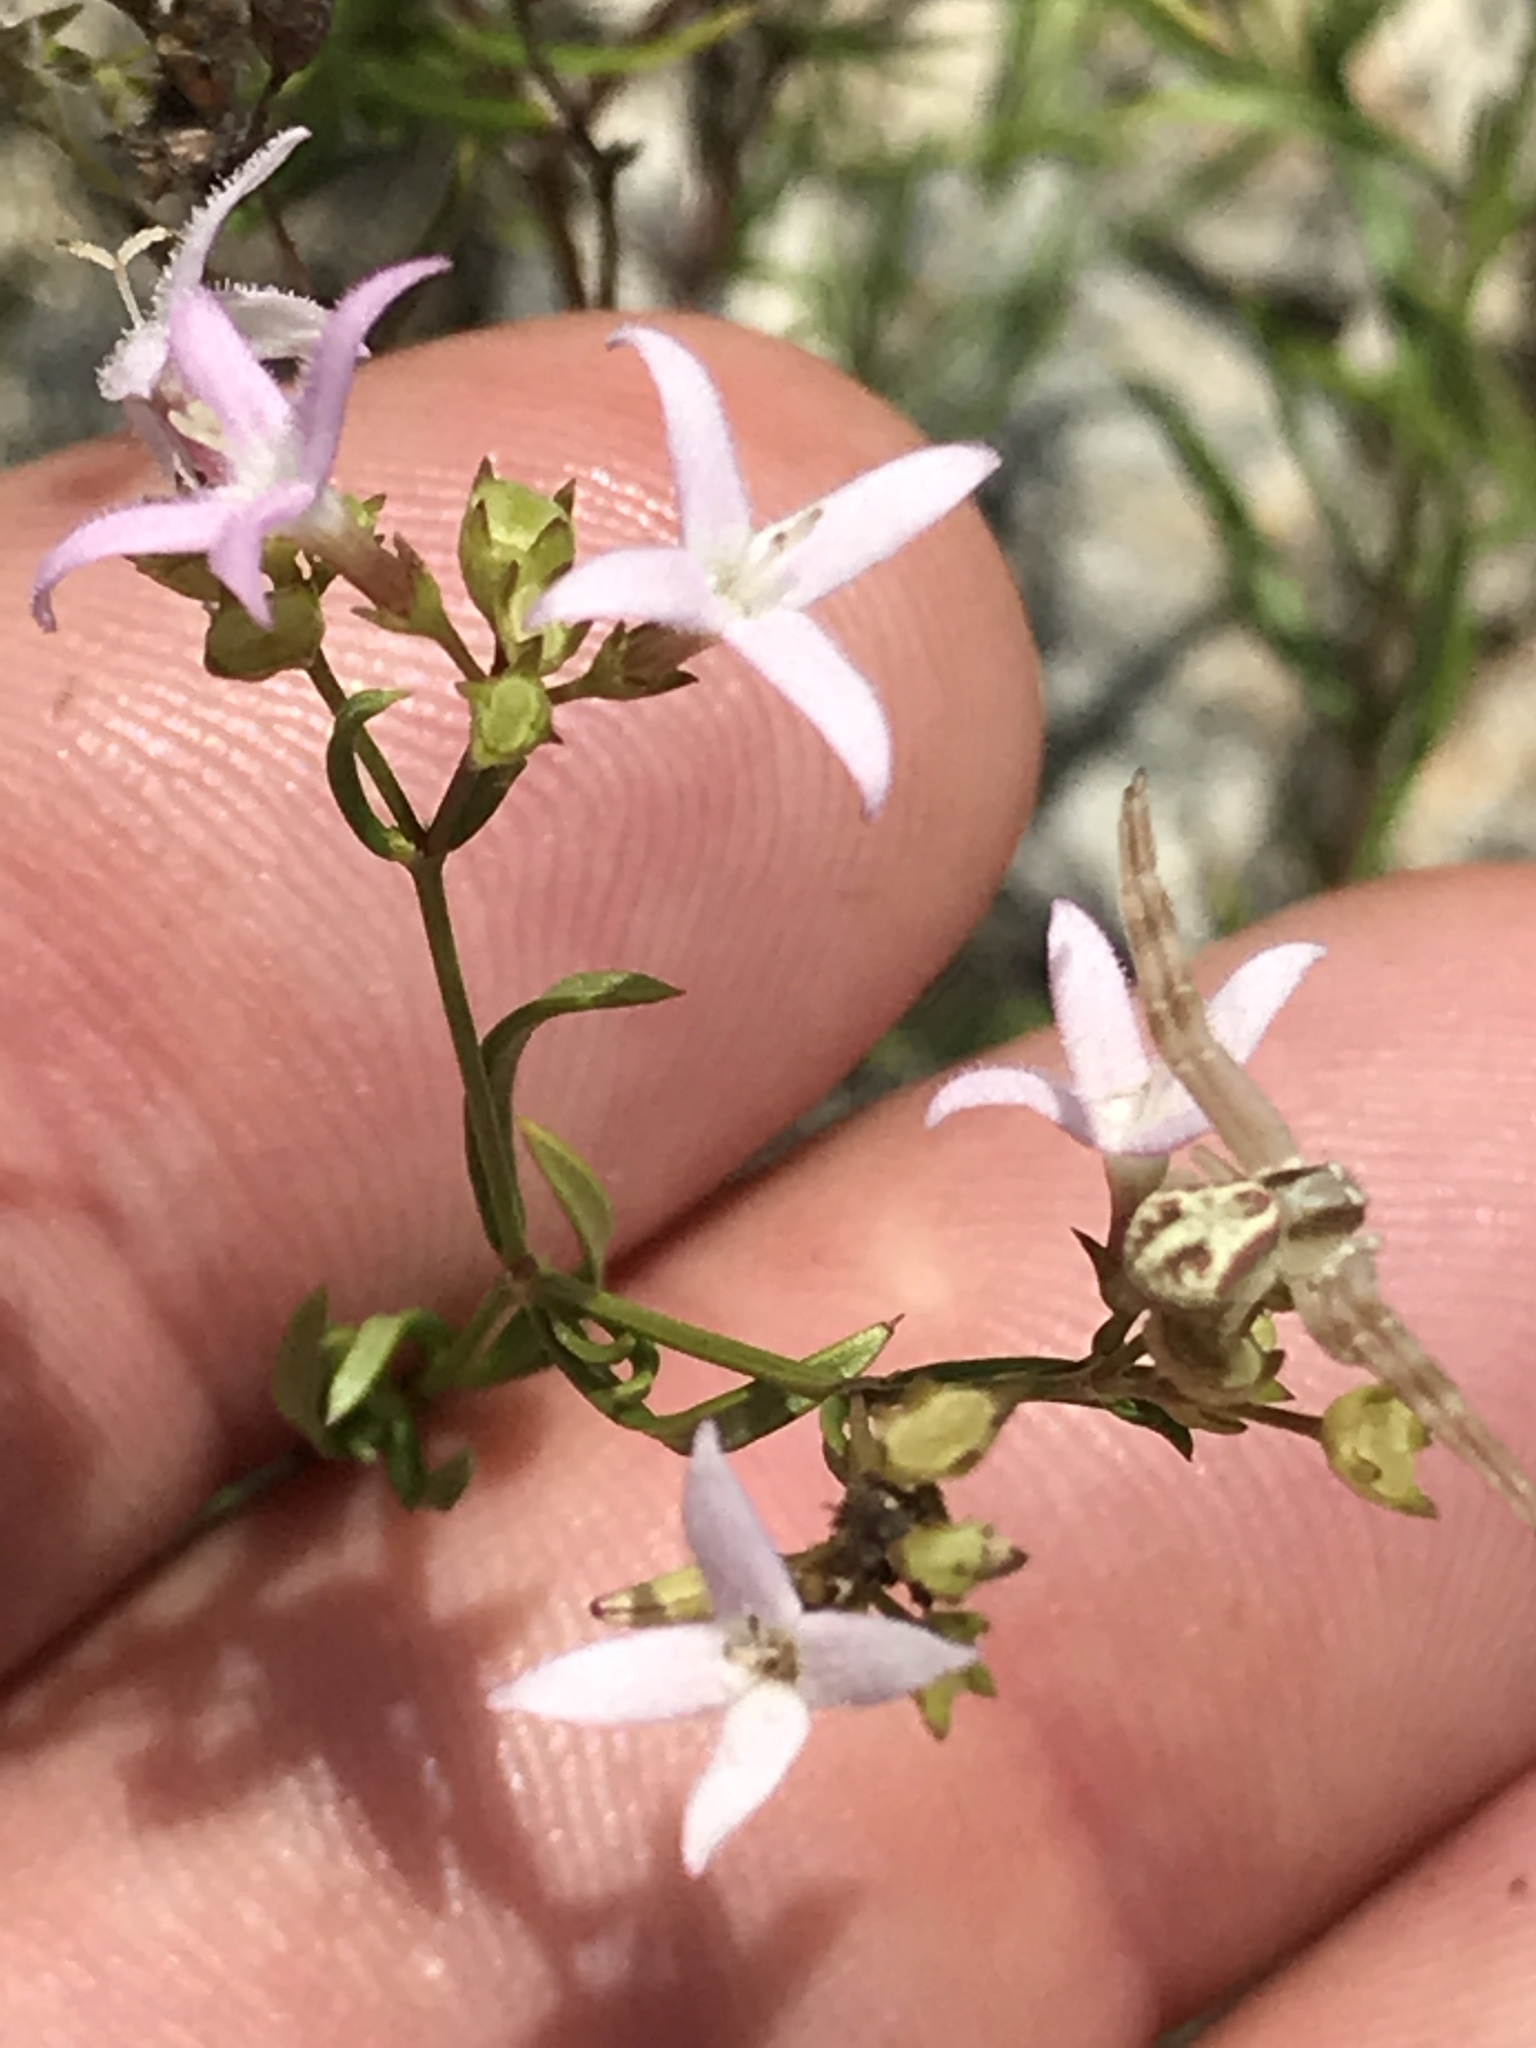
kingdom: Plantae
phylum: Tracheophyta
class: Magnoliopsida
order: Gentianales
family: Rubiaceae
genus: Stenaria
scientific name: Stenaria nigricans
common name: Diamondflowers
